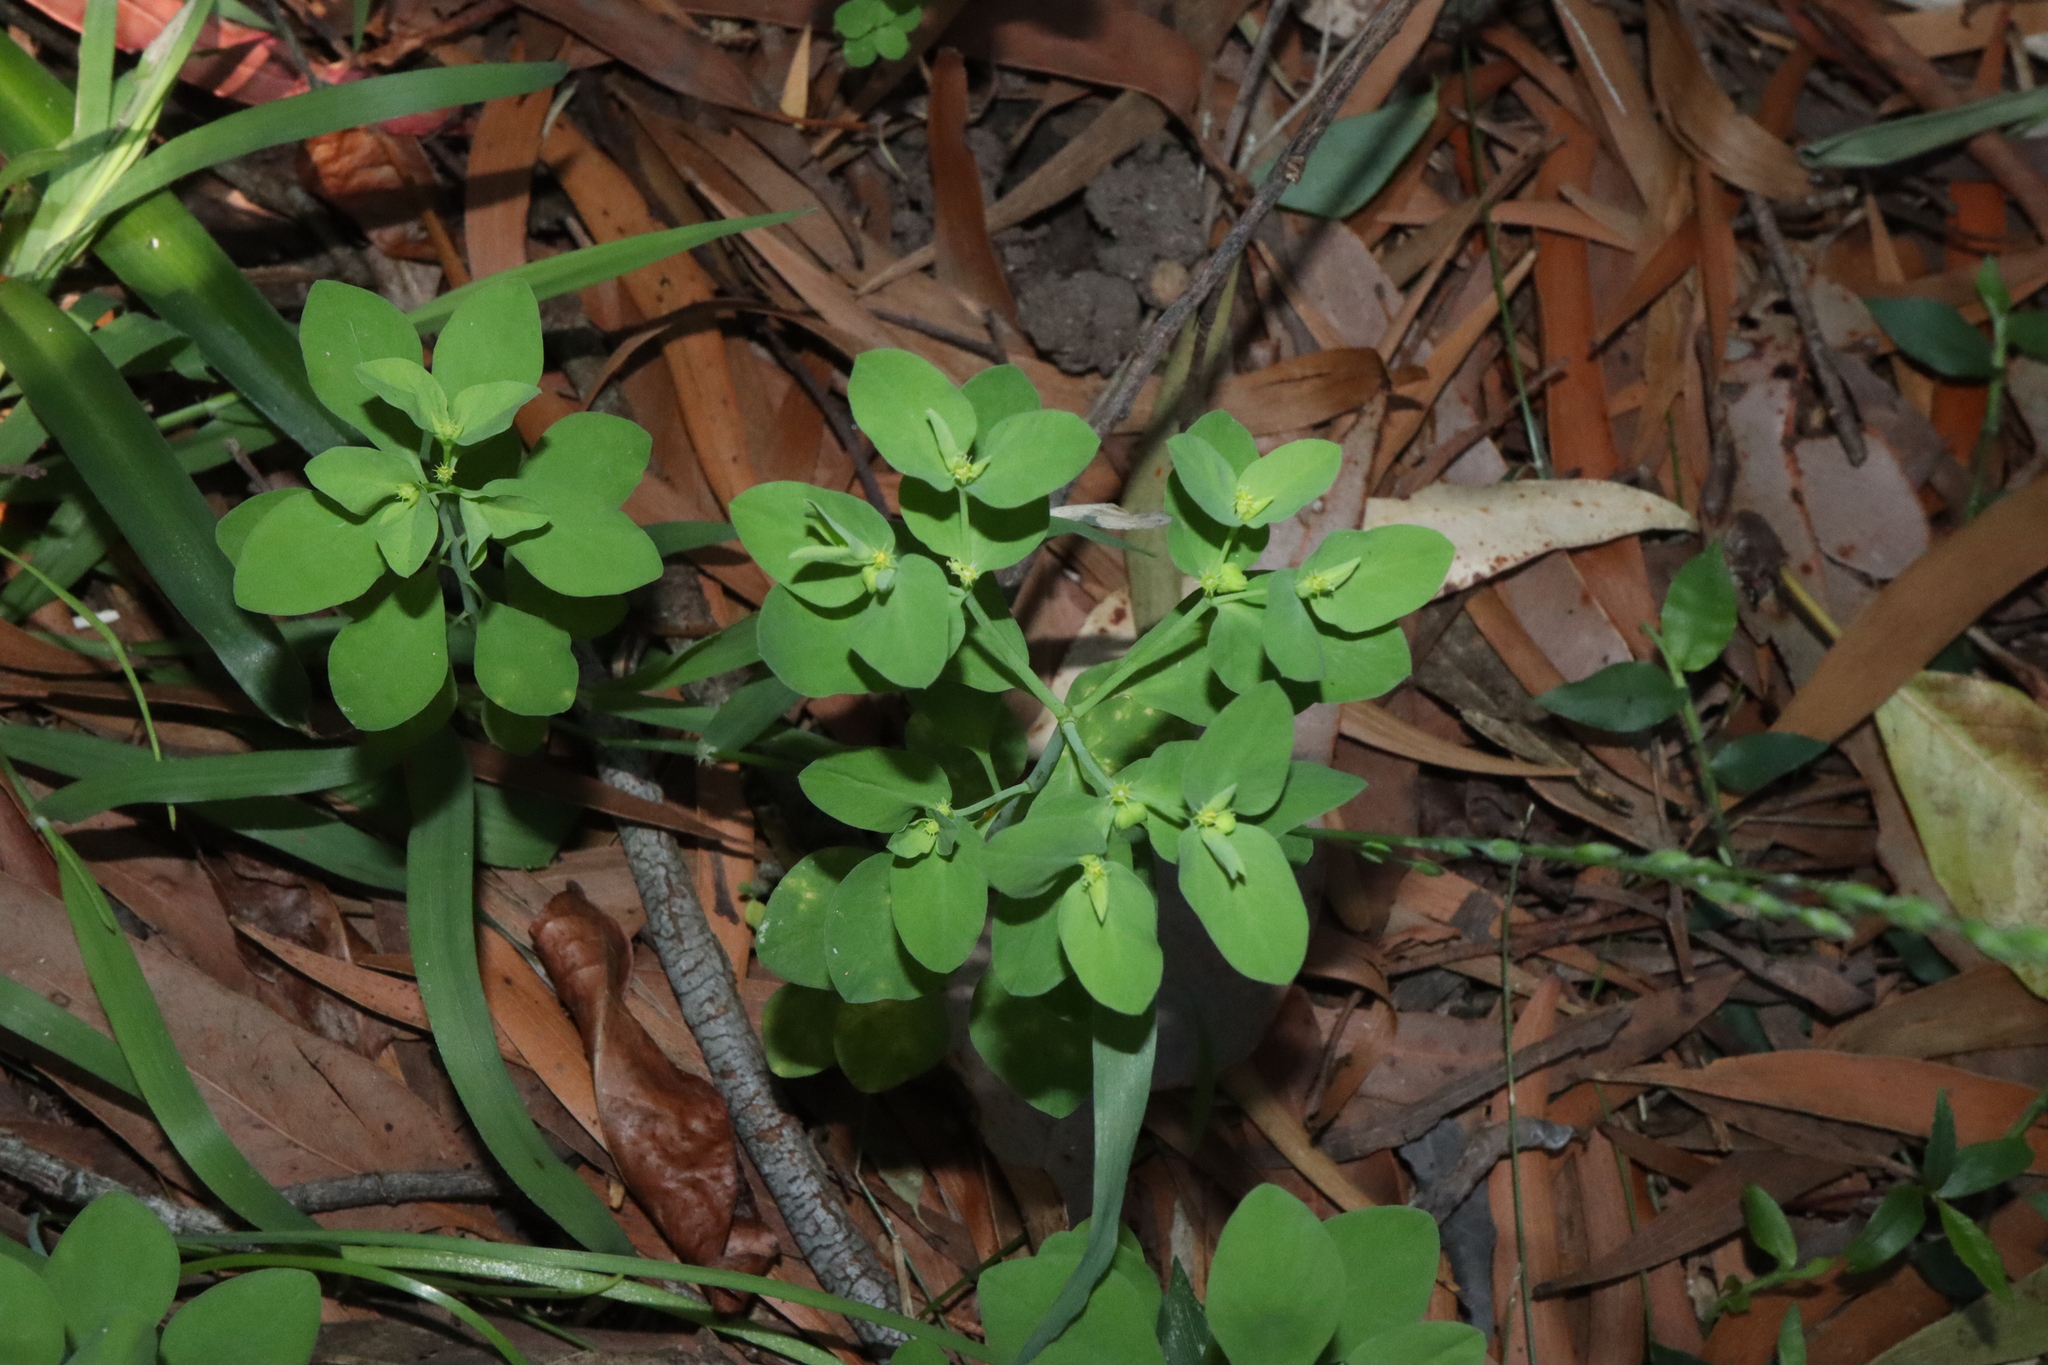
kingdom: Plantae
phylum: Tracheophyta
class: Magnoliopsida
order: Malpighiales
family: Euphorbiaceae
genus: Euphorbia
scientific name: Euphorbia peplus
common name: Petty spurge
